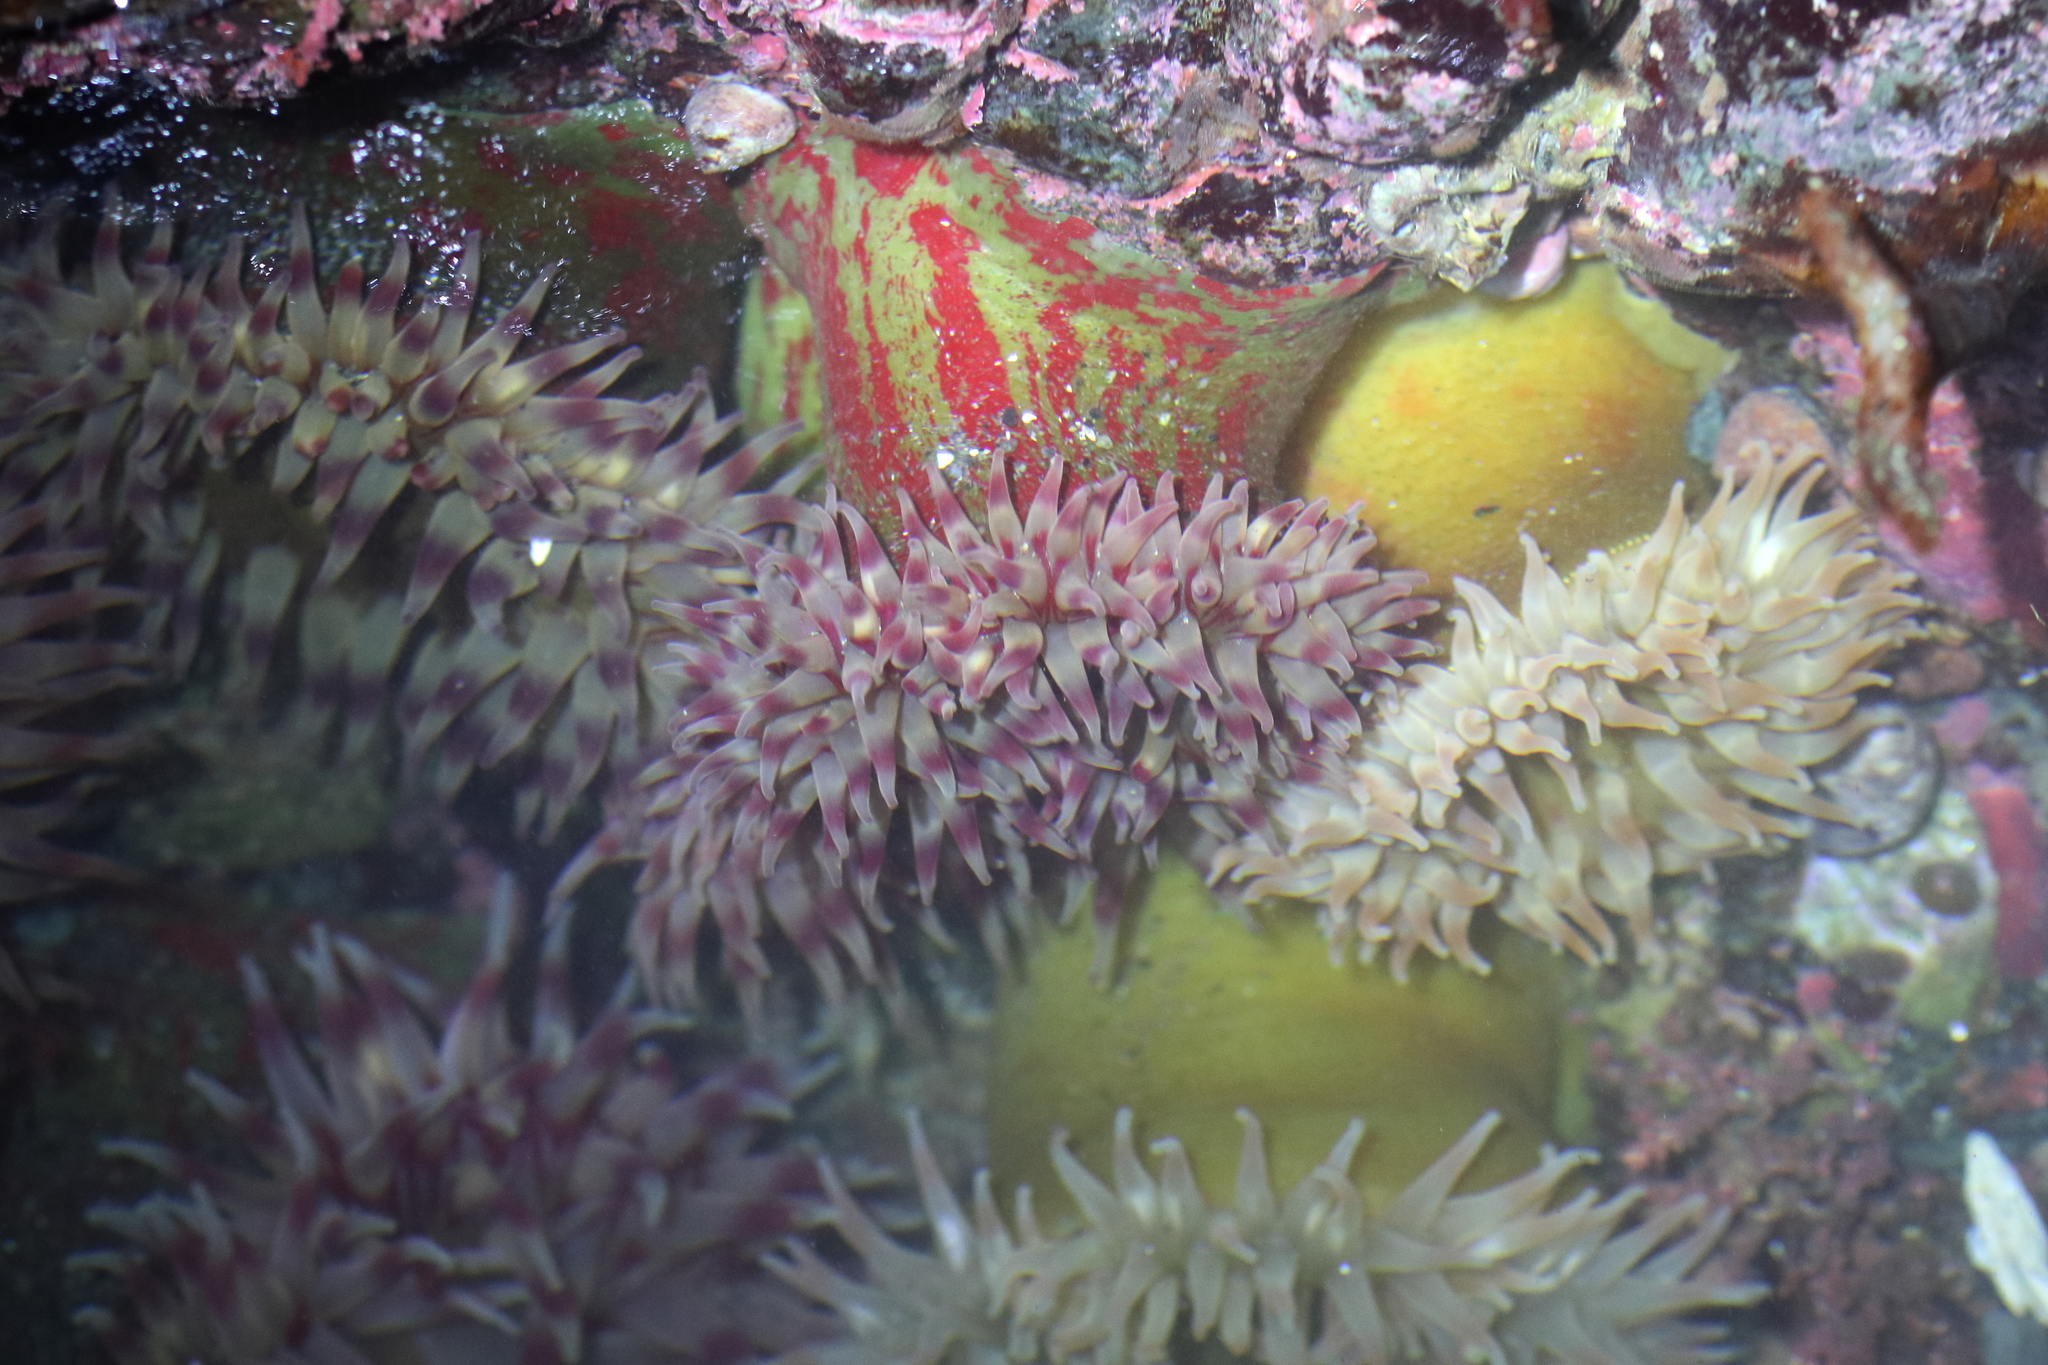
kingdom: Animalia
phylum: Cnidaria
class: Anthozoa
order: Actiniaria
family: Actiniidae
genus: Urticina
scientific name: Urticina grebelnyi
